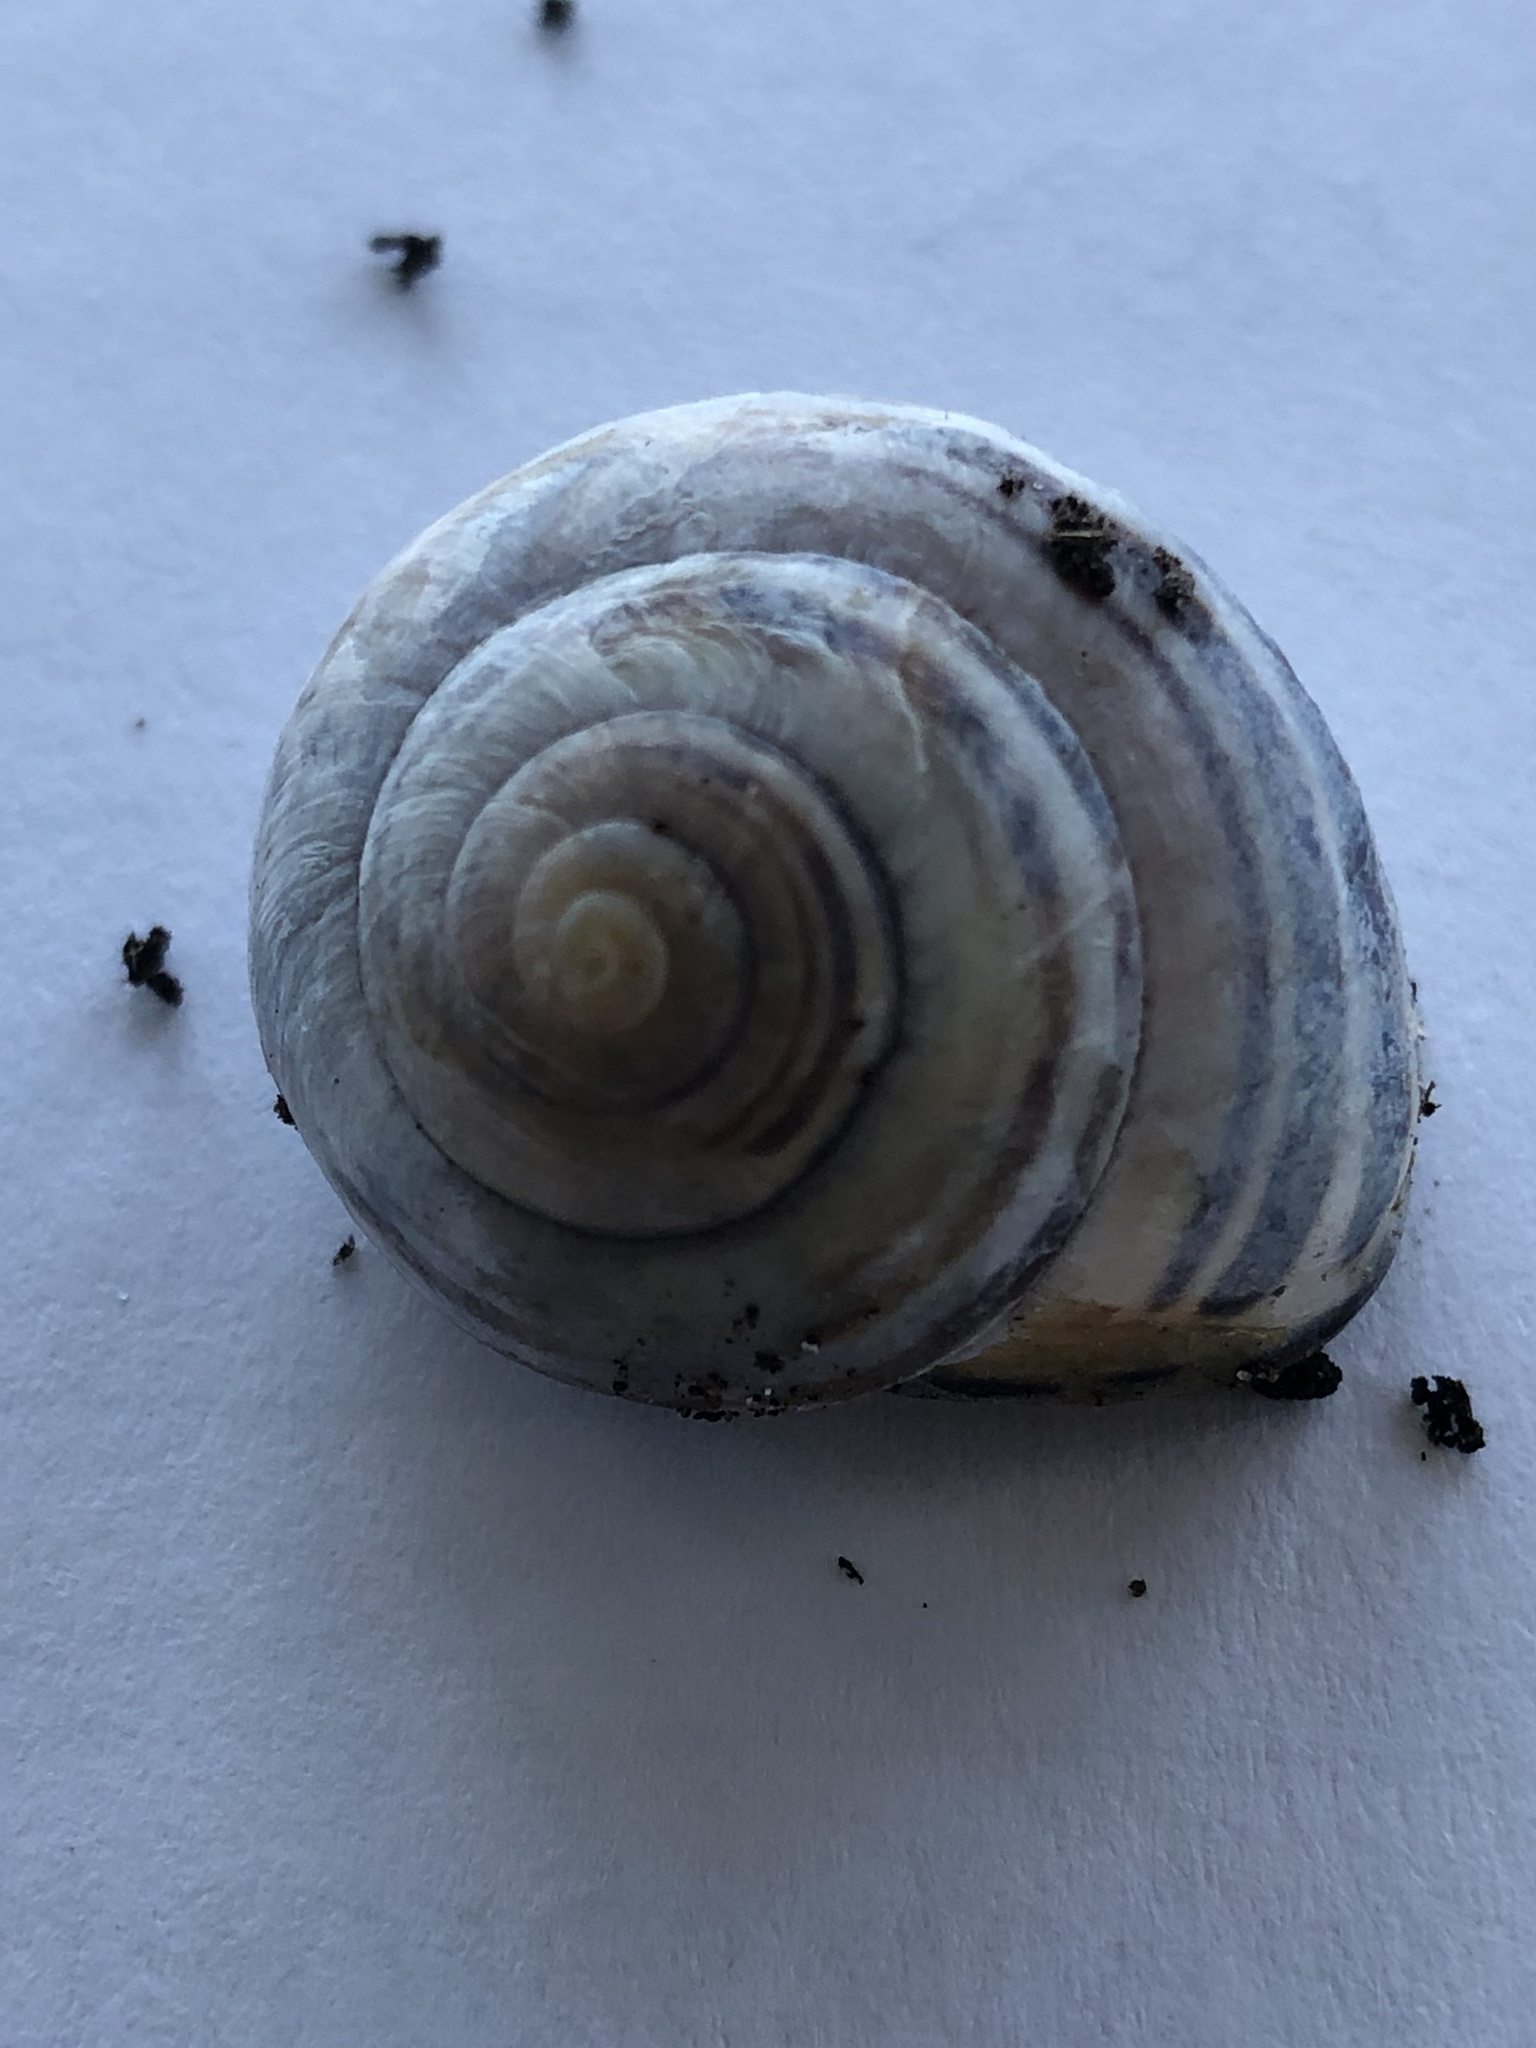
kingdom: Animalia
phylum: Mollusca
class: Gastropoda
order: Stylommatophora
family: Helicidae
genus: Cepaea
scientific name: Cepaea nemoralis
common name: Grovesnail
